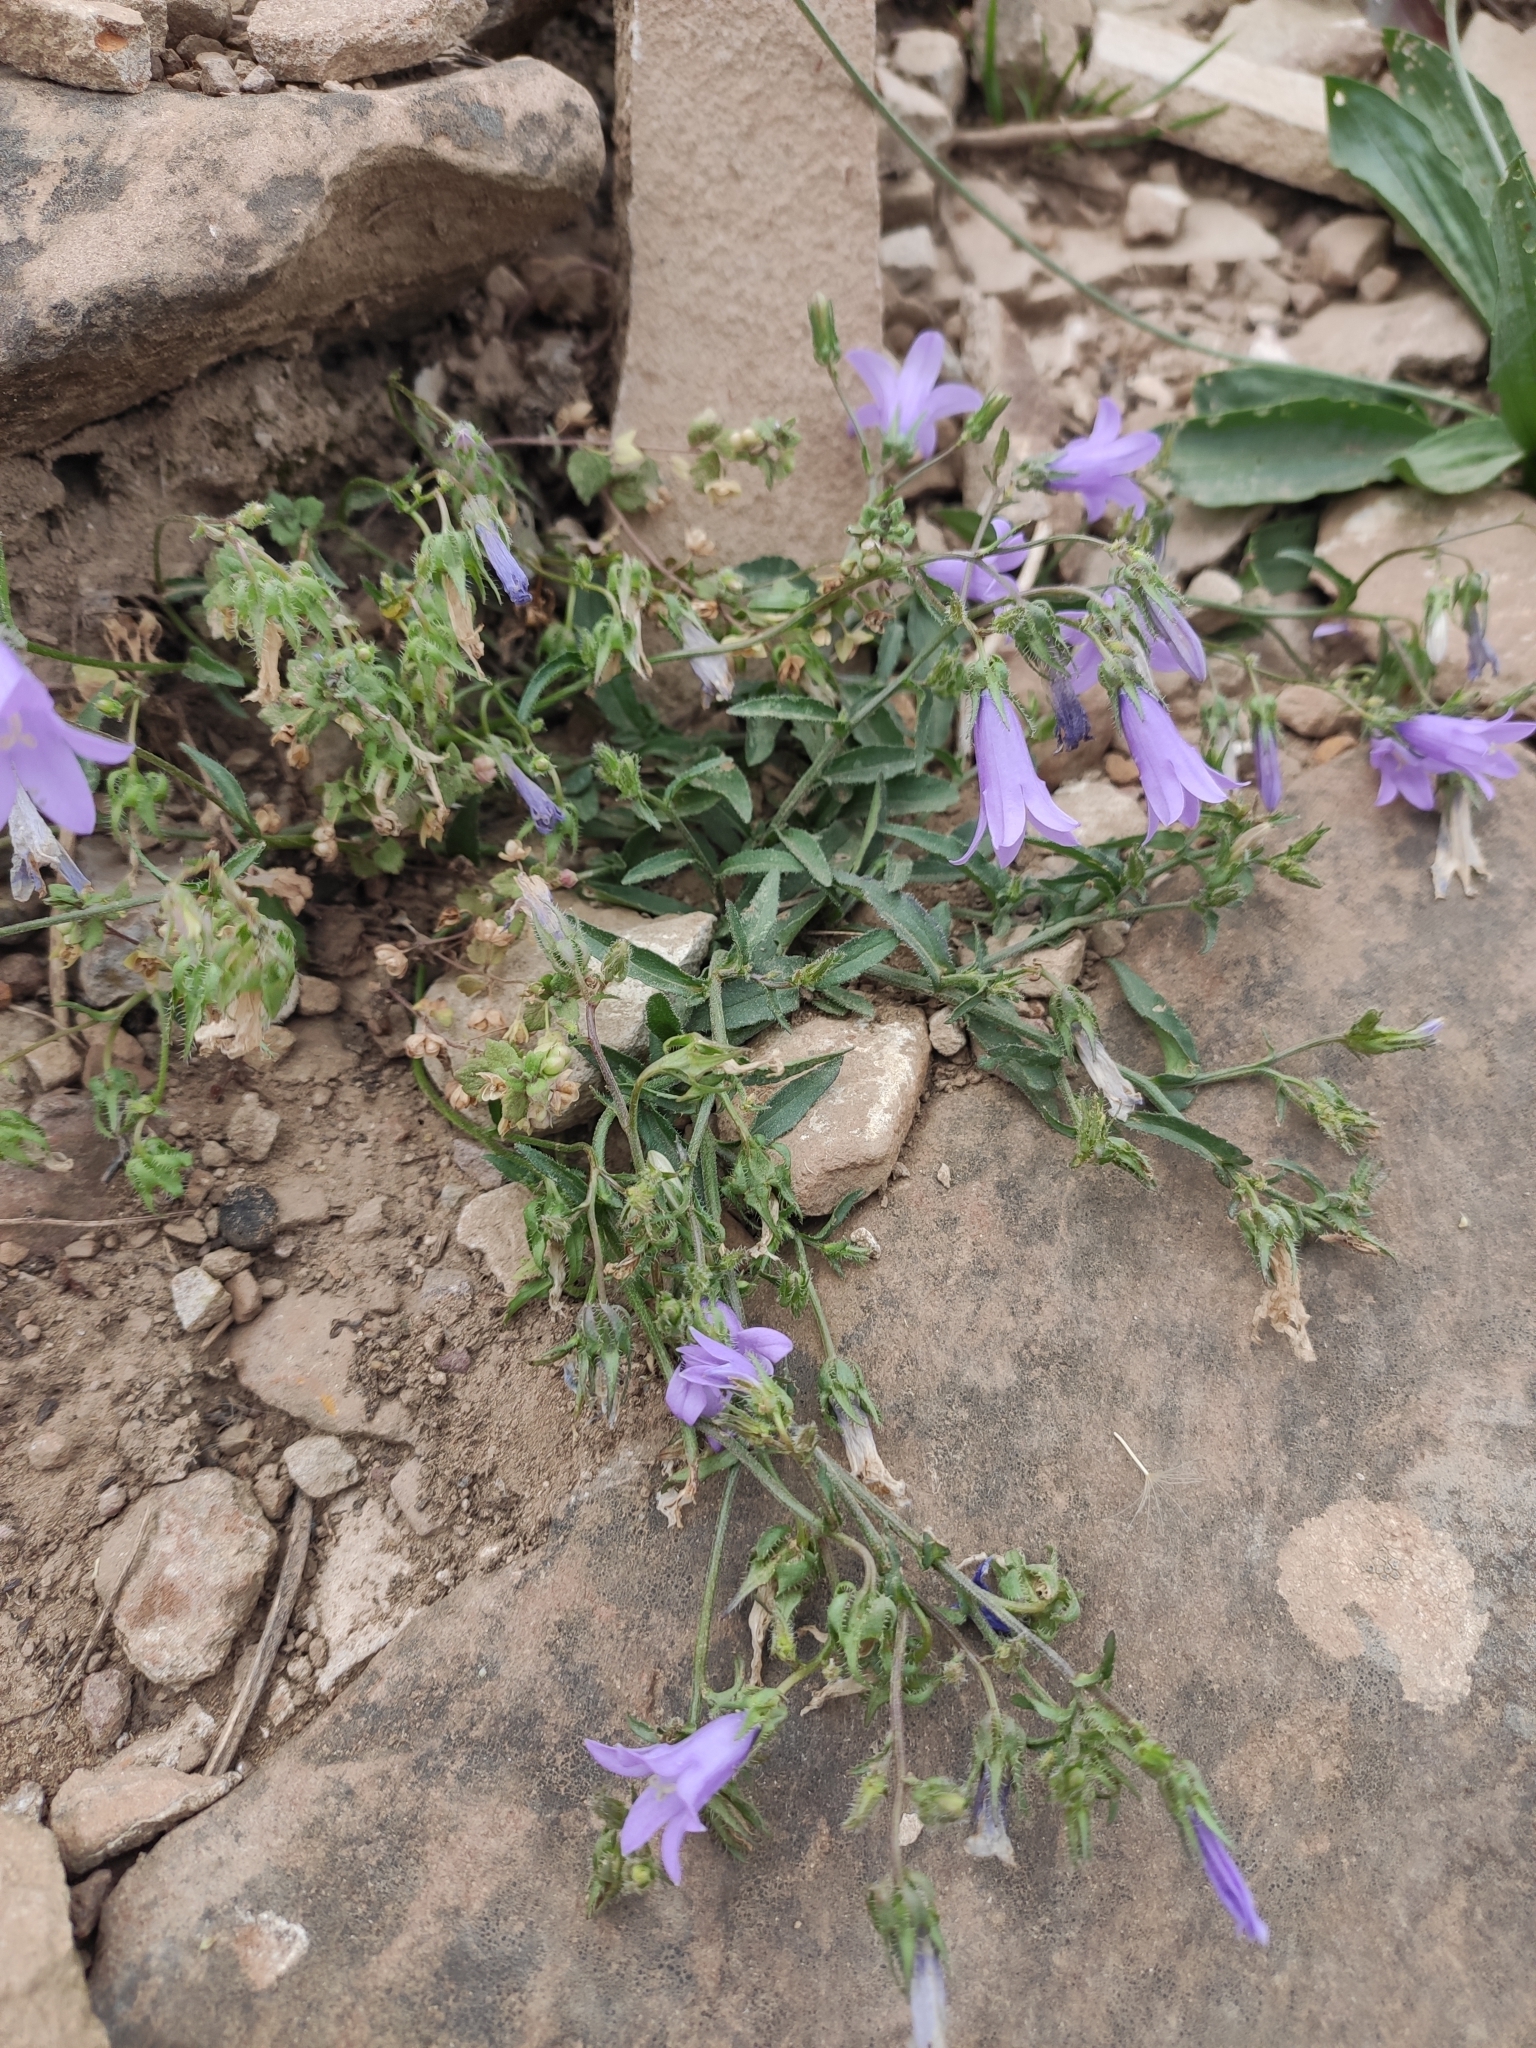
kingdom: Plantae
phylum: Tracheophyta
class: Magnoliopsida
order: Asterales
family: Campanulaceae
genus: Campanula
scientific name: Campanula sibirica
